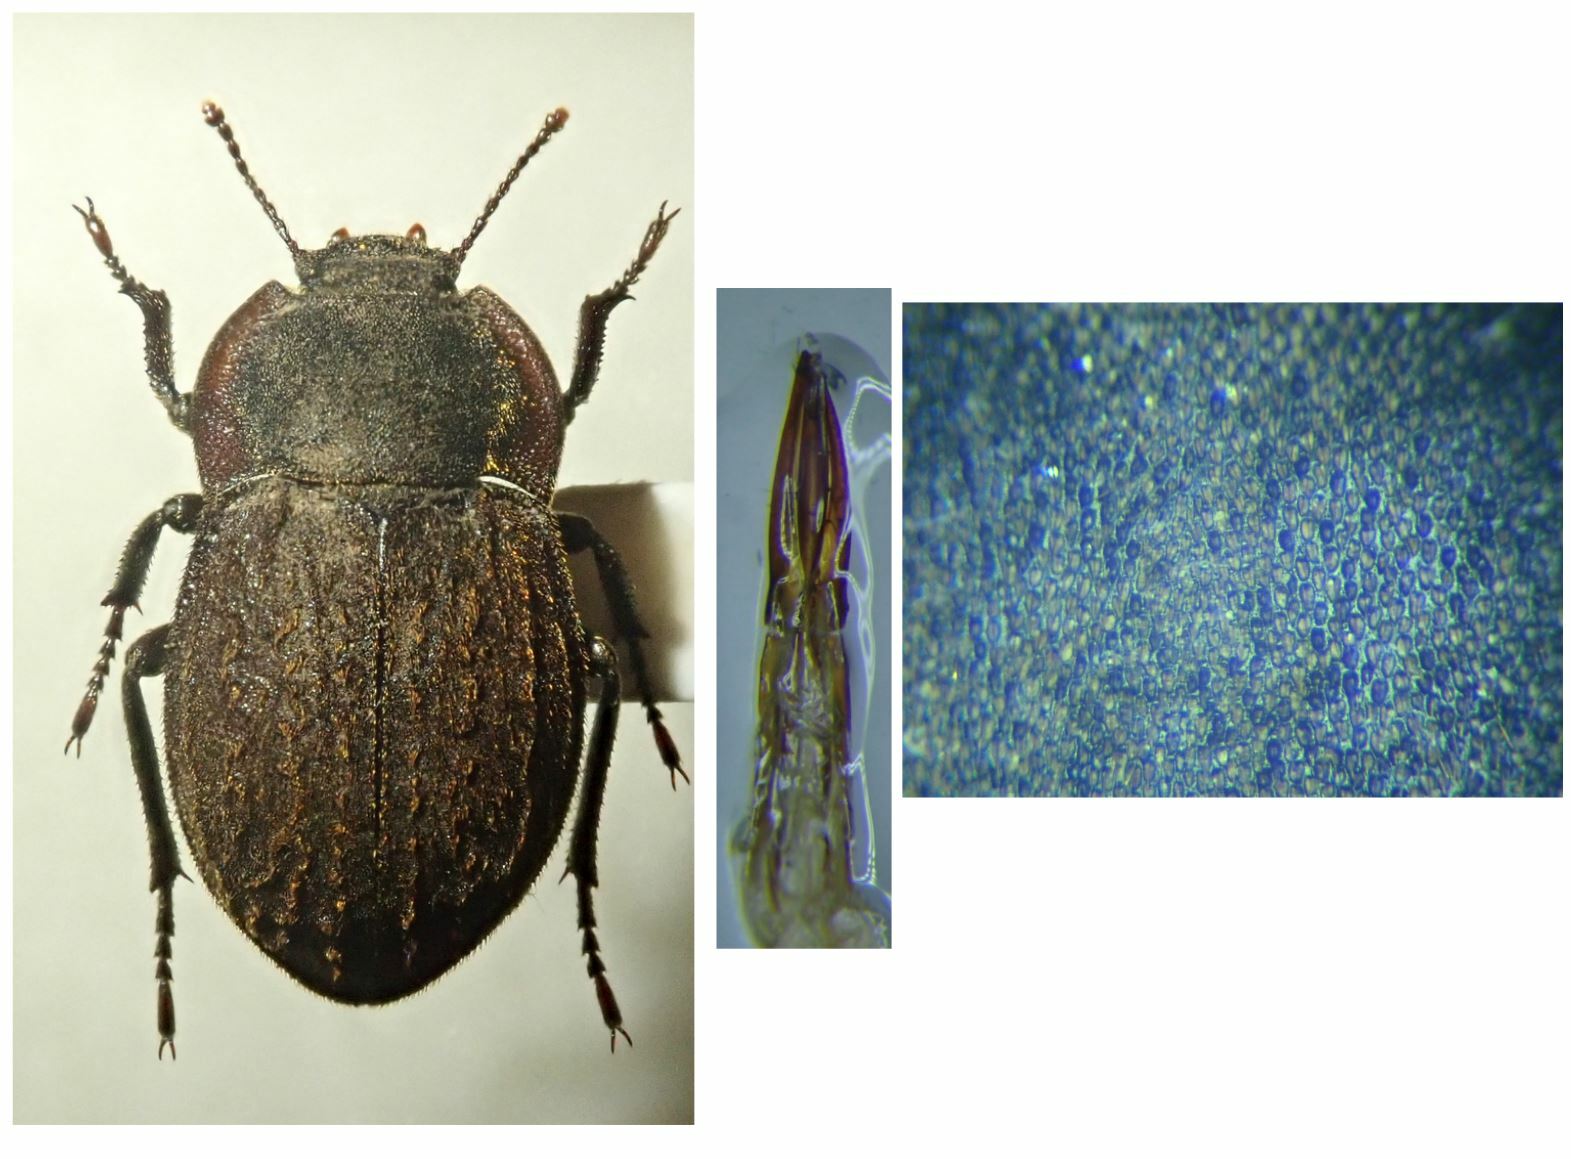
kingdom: Animalia
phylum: Arthropoda
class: Insecta
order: Coleoptera
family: Tenebrionidae
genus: Asida
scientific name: Asida sericea
